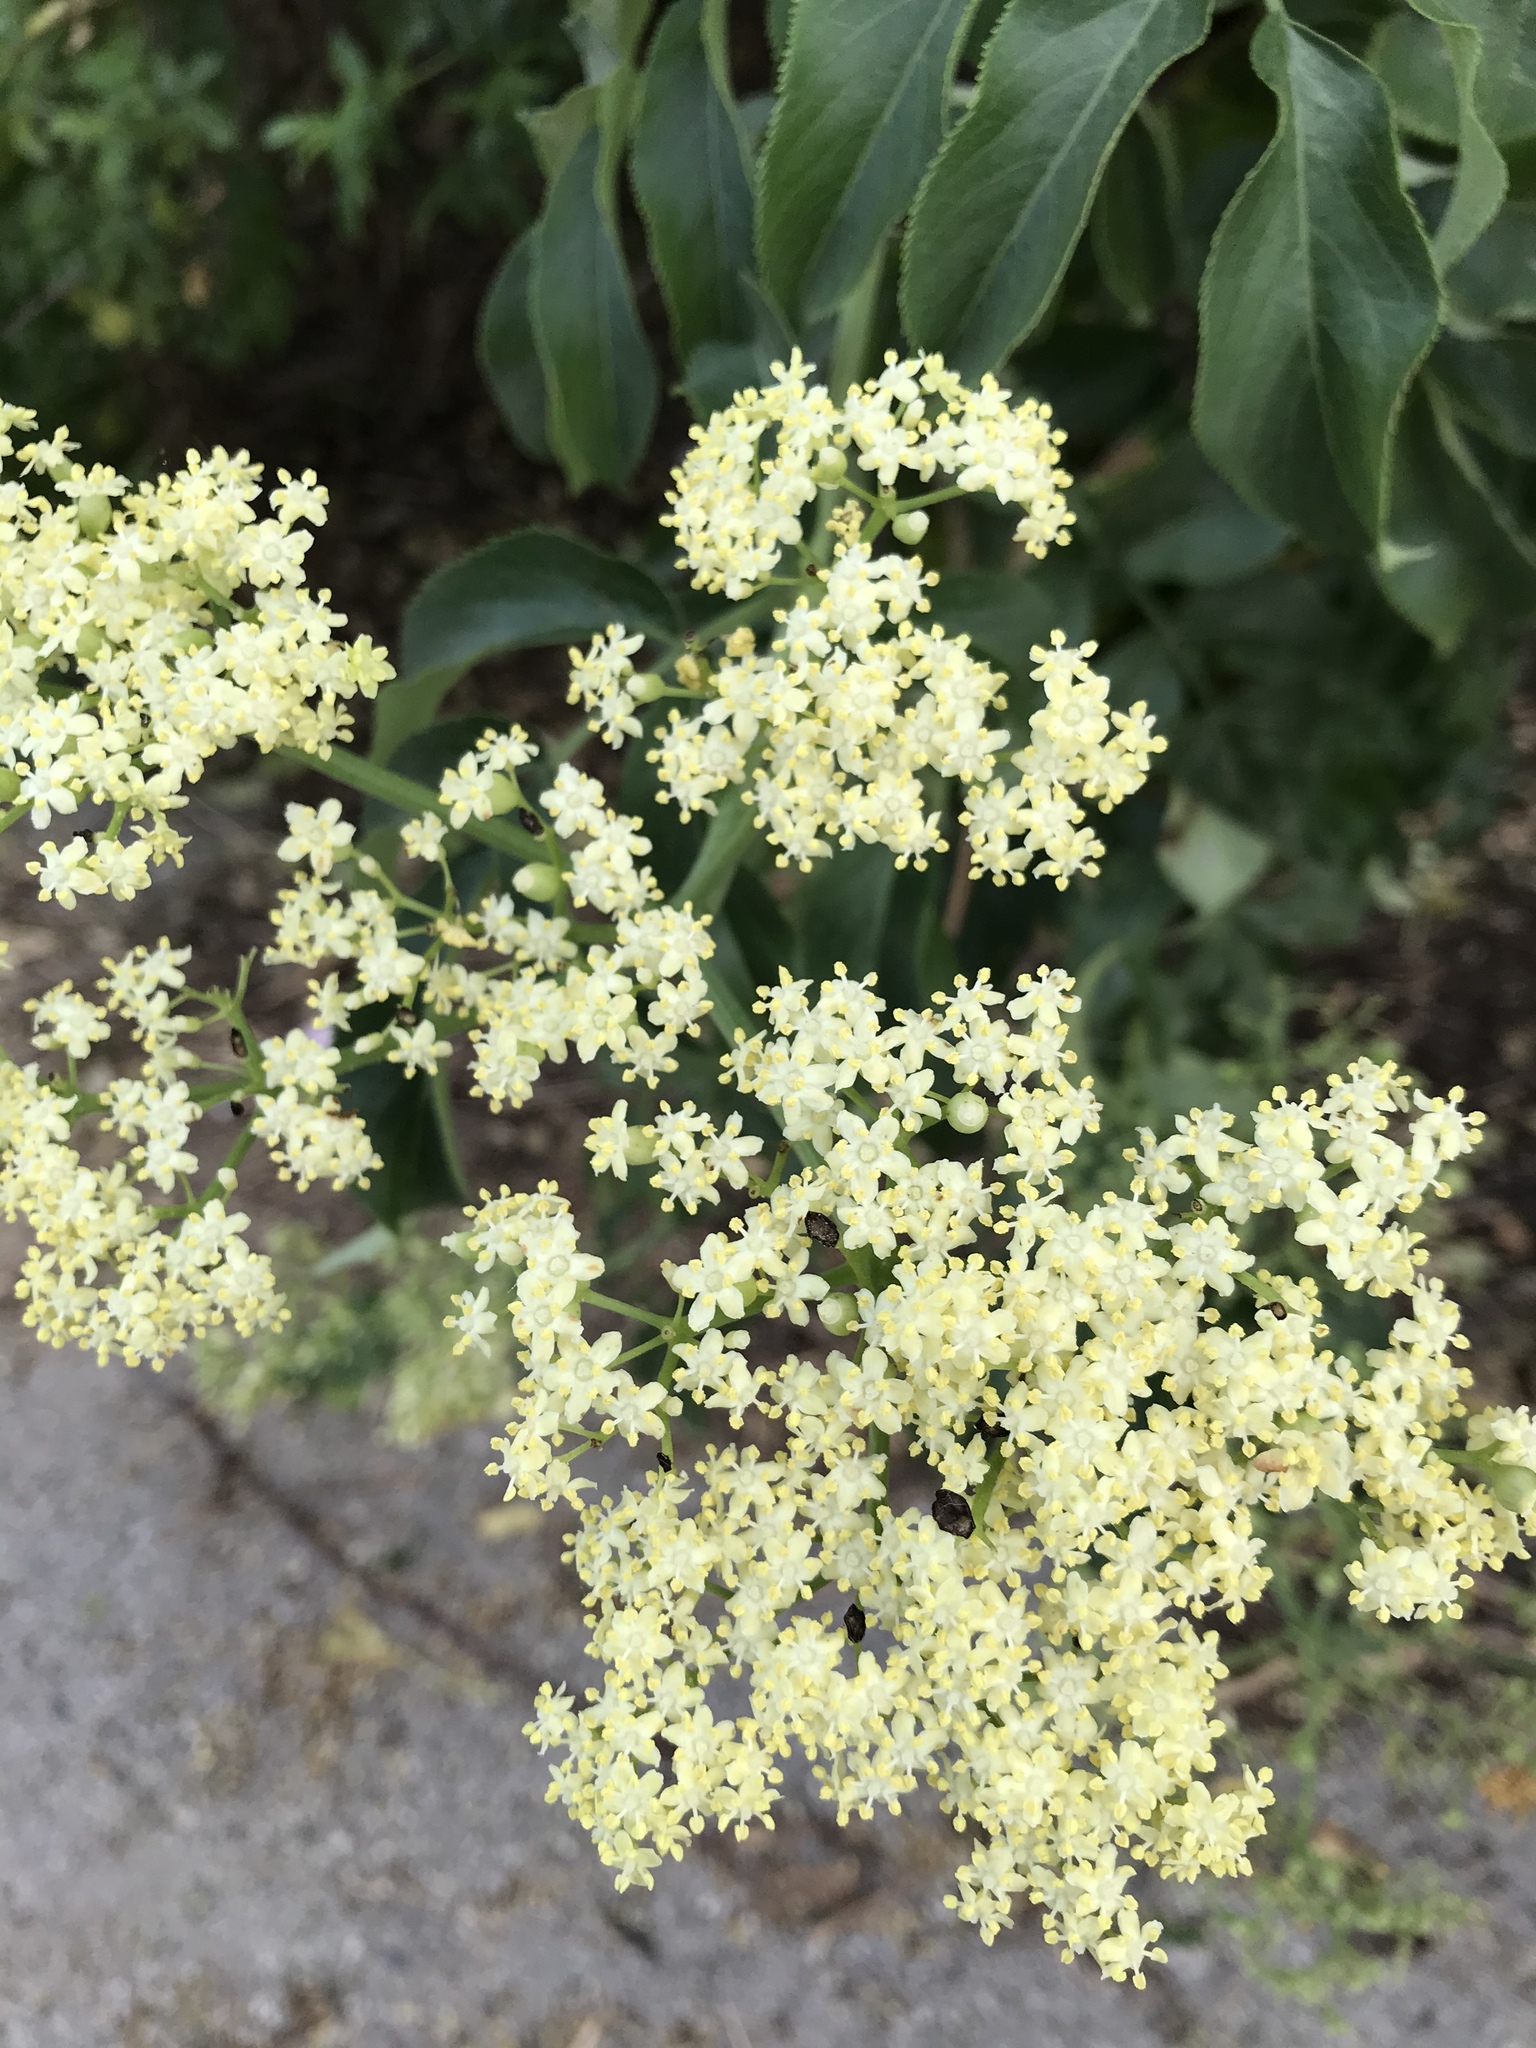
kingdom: Plantae
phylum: Tracheophyta
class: Magnoliopsida
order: Dipsacales
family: Viburnaceae
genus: Sambucus
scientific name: Sambucus cerulea
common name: Blue elder
